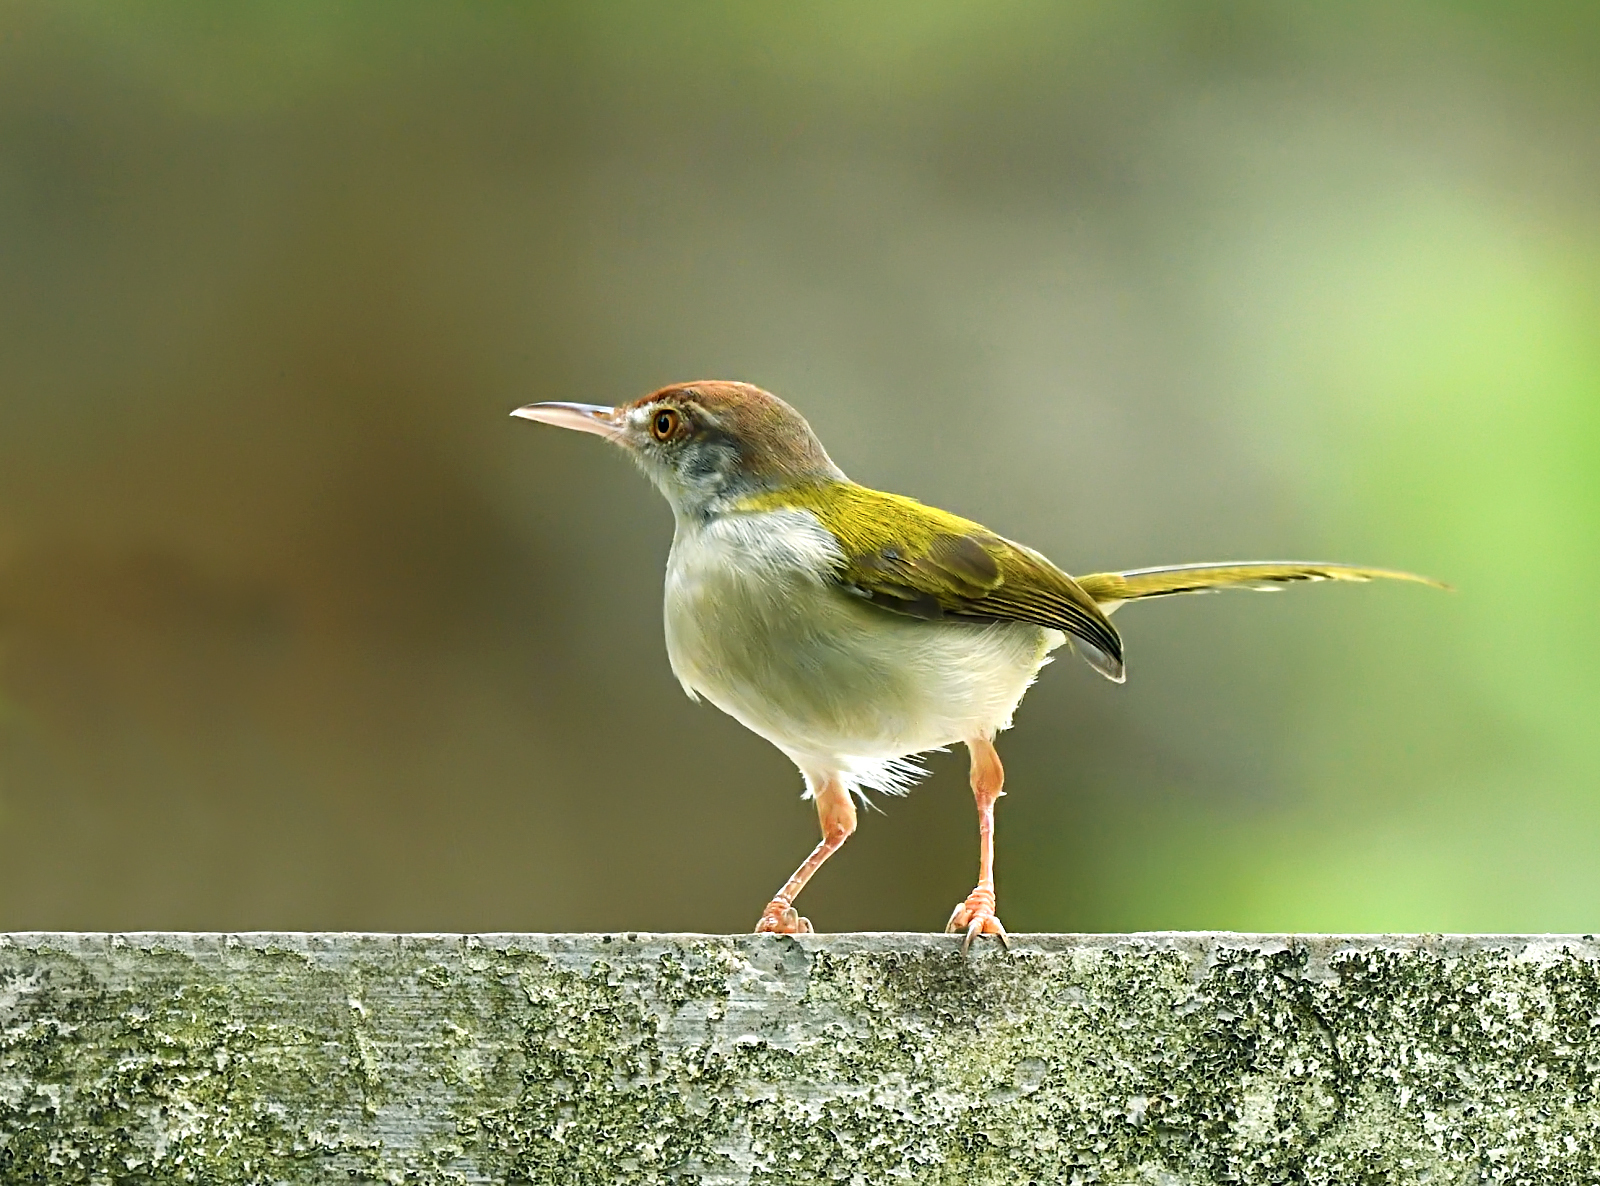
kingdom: Animalia
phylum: Chordata
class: Aves
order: Passeriformes
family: Cisticolidae
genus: Orthotomus
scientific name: Orthotomus sutorius
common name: Common tailorbird
